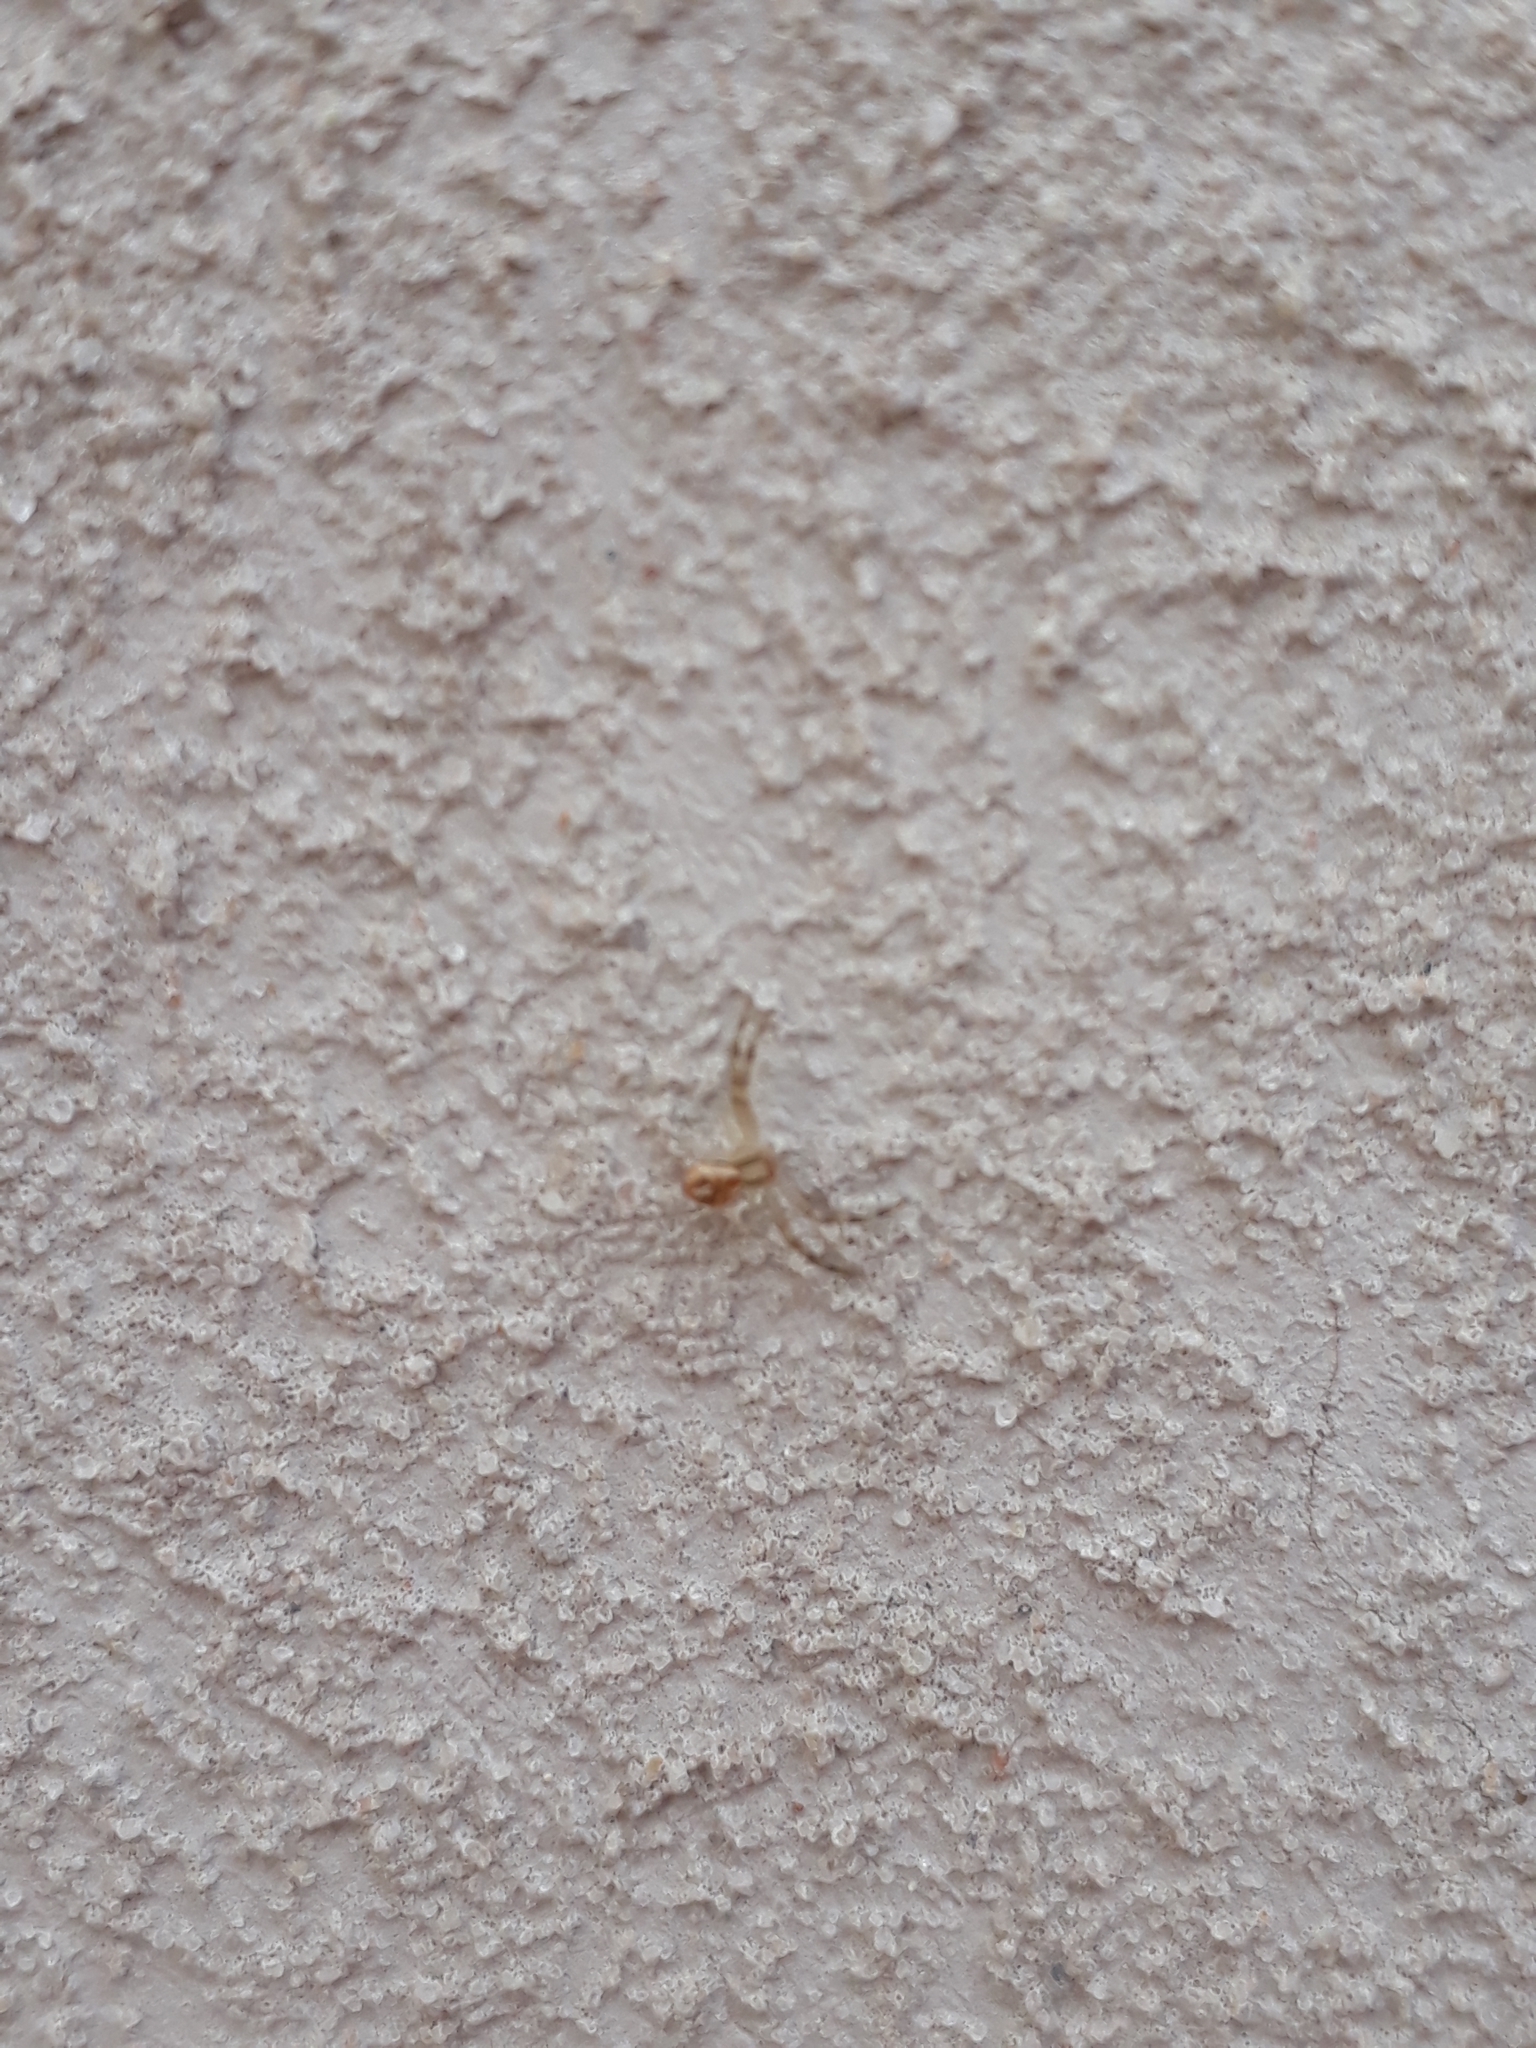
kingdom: Animalia
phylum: Arthropoda
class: Arachnida
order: Araneae
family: Thomisidae
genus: Misumenops
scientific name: Misumenops
